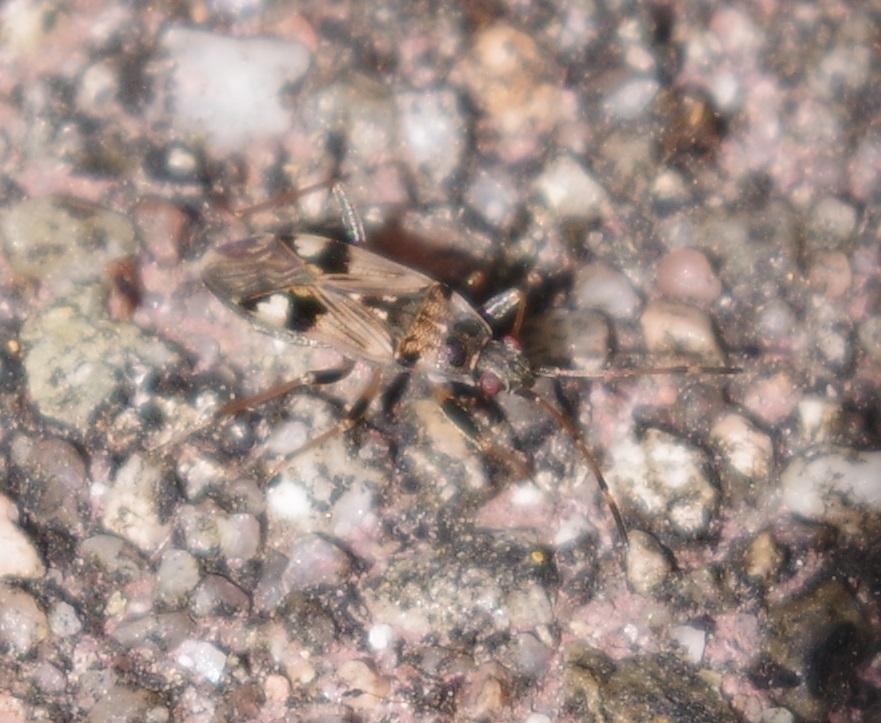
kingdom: Animalia
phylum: Arthropoda
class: Insecta
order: Hemiptera
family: Rhyparochromidae
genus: Beosus
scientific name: Beosus maritimus
